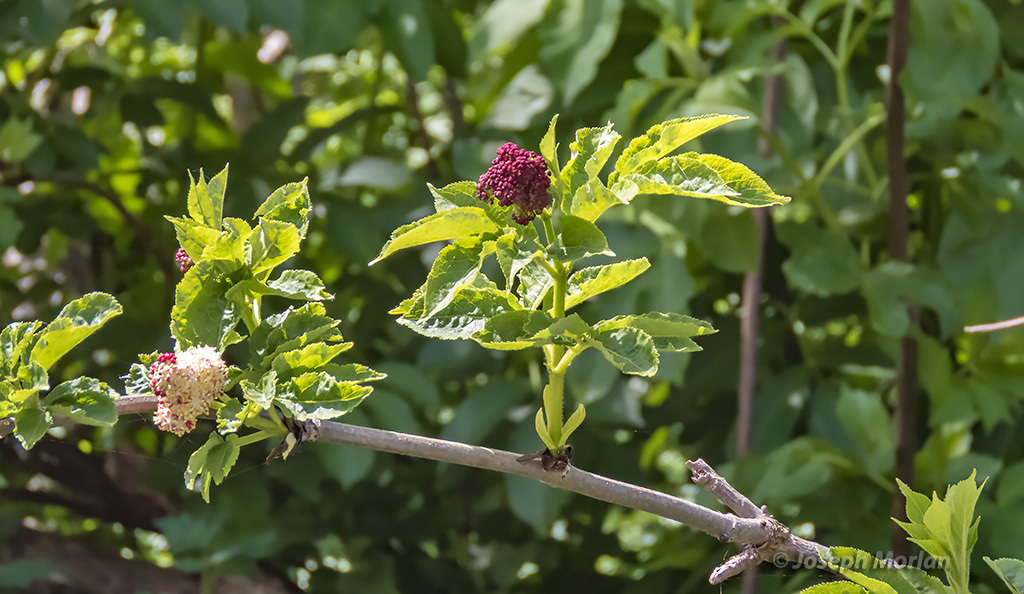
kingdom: Plantae
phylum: Tracheophyta
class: Magnoliopsida
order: Dipsacales
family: Viburnaceae
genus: Sambucus
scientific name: Sambucus racemosa
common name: Red-berried elder
